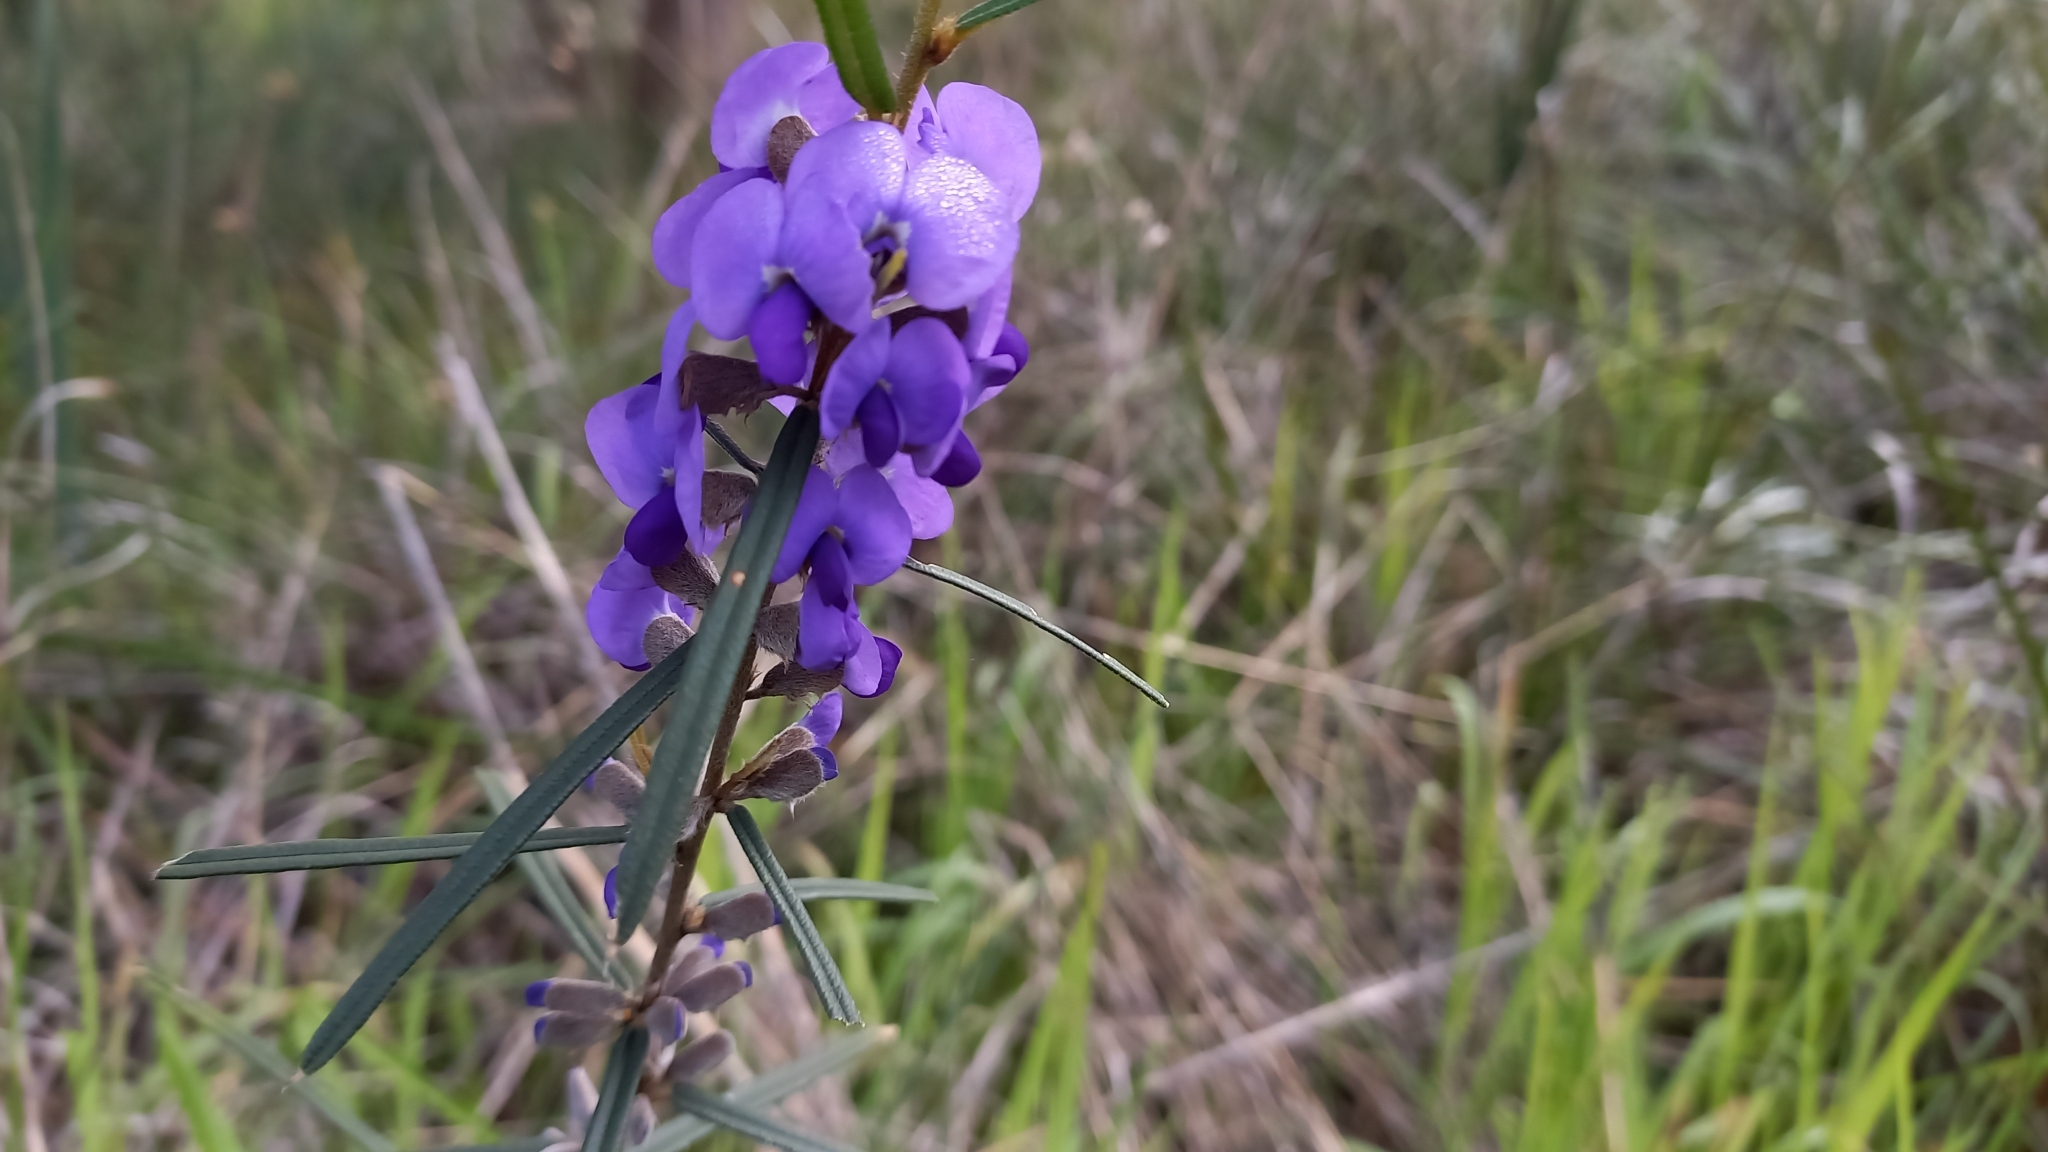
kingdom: Plantae
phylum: Tracheophyta
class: Magnoliopsida
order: Fabales
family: Fabaceae
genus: Hovea
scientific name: Hovea trisperma
